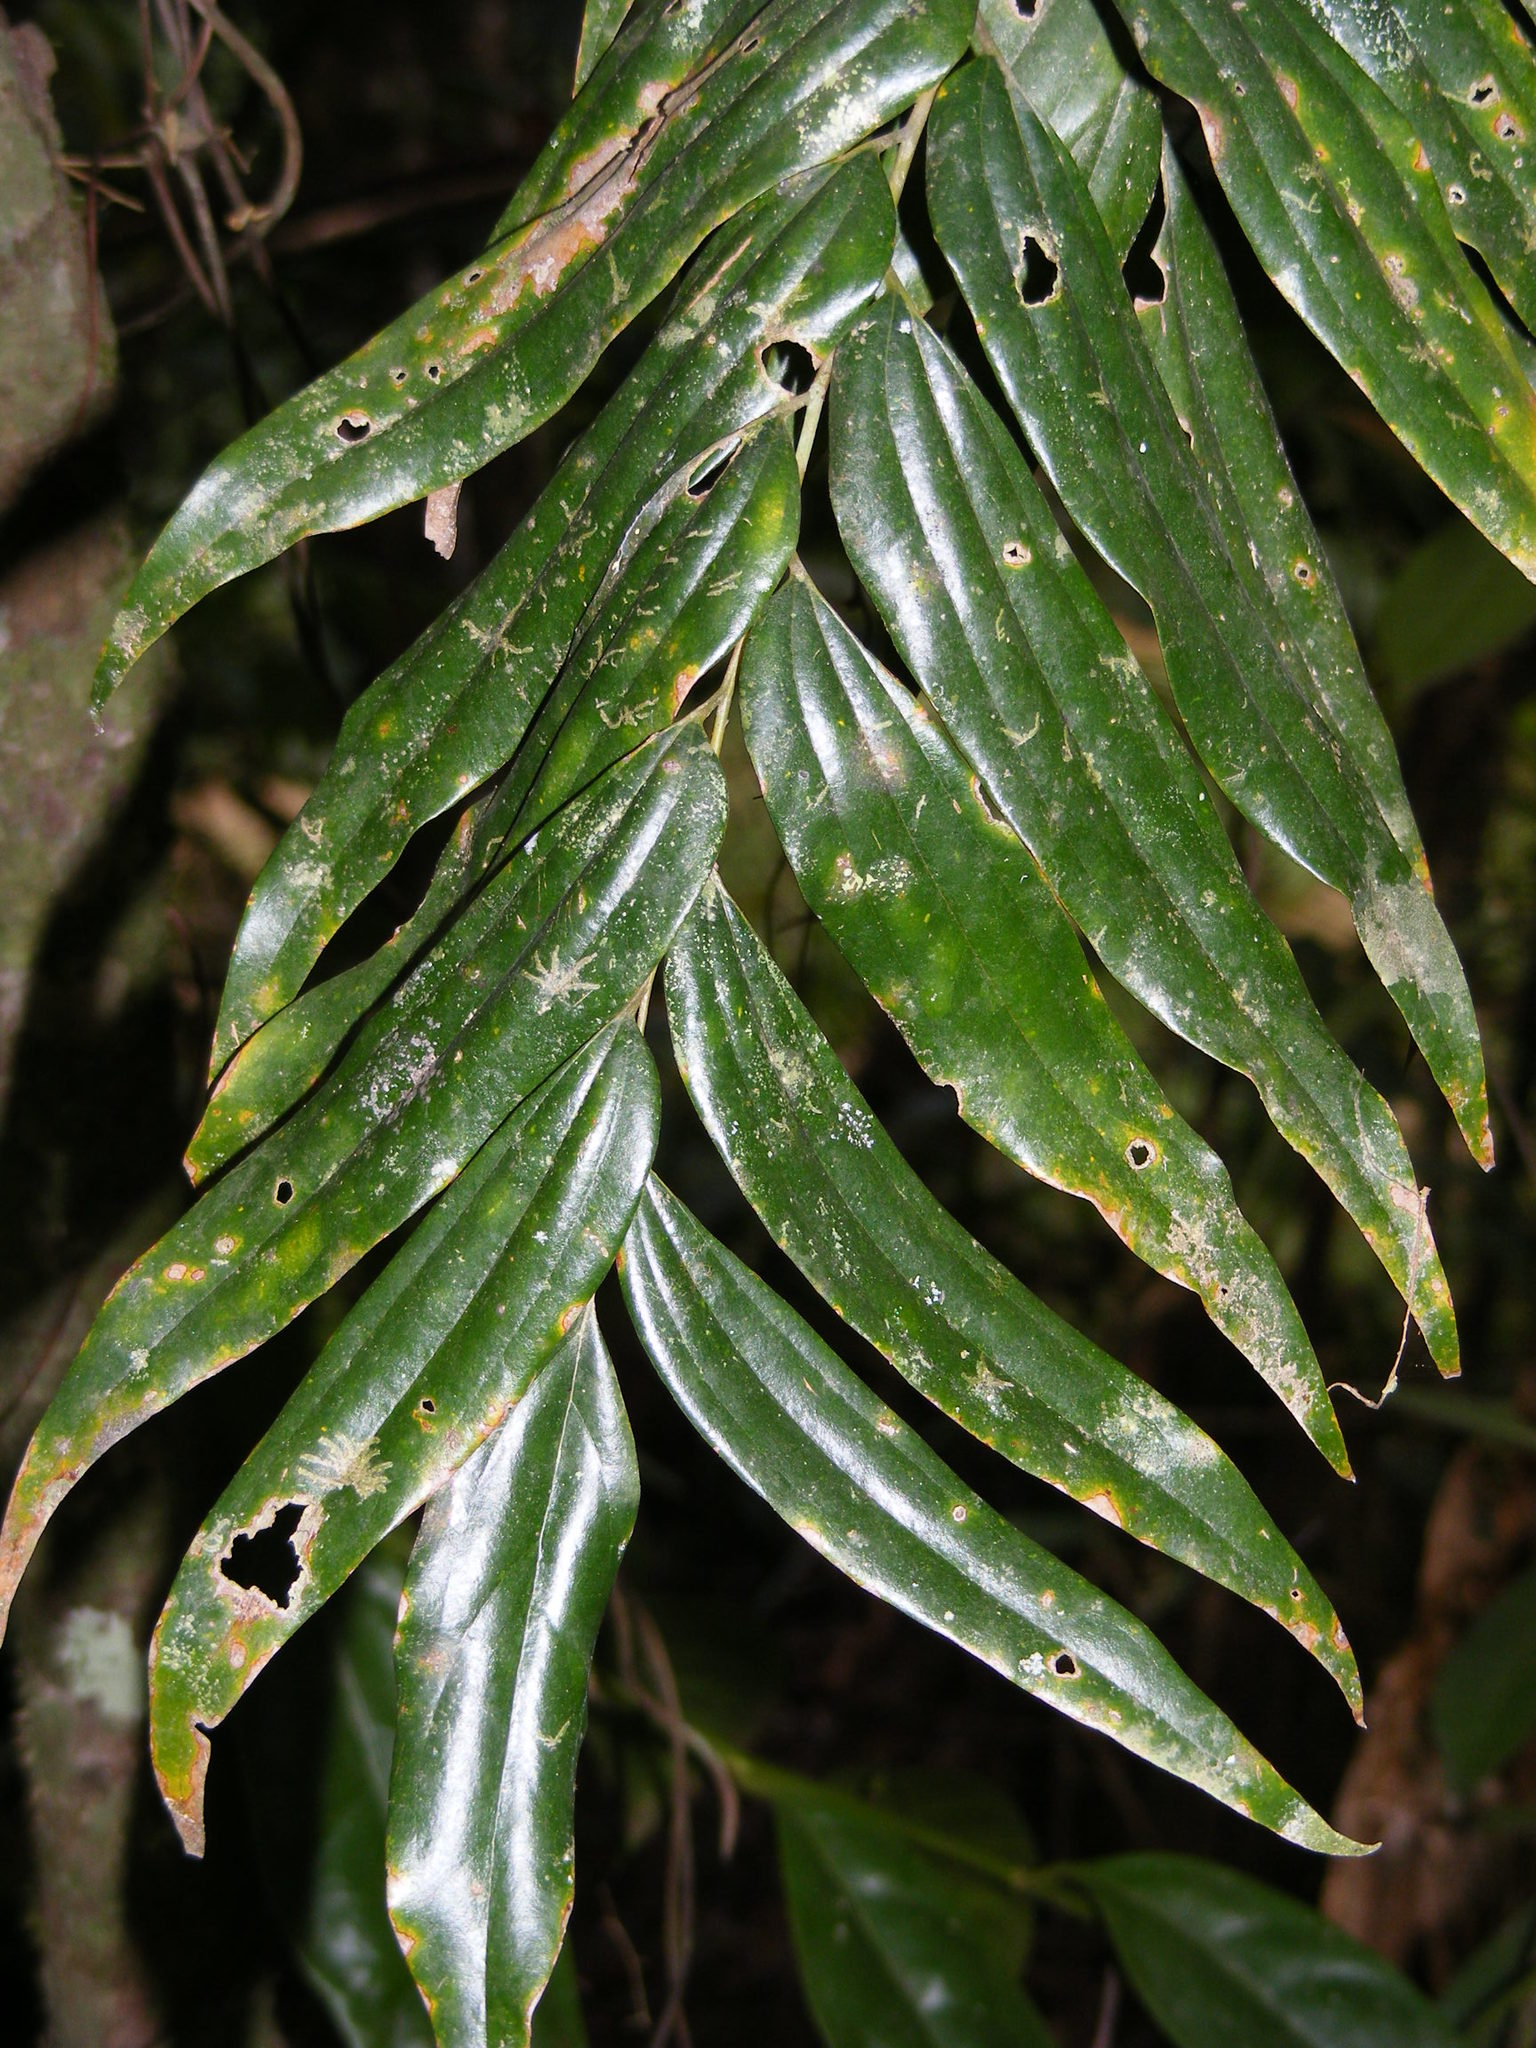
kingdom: Plantae
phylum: Tracheophyta
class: Magnoliopsida
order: Proteales
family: Proteaceae
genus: Austromuellera
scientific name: Austromuellera trinervia
